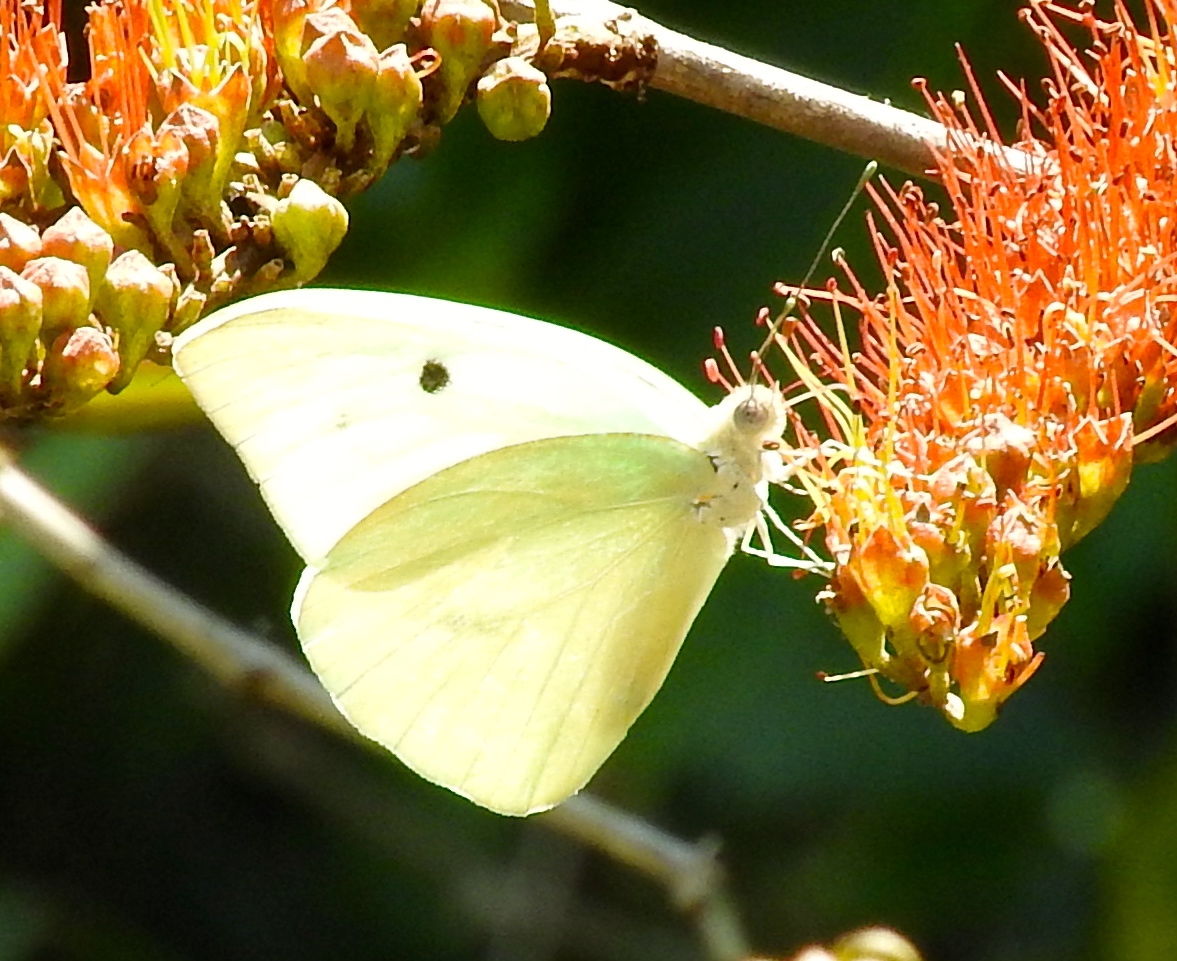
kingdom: Animalia
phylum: Arthropoda
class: Insecta
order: Lepidoptera
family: Pieridae
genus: Ganyra
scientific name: Ganyra josephina
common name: Giant white
